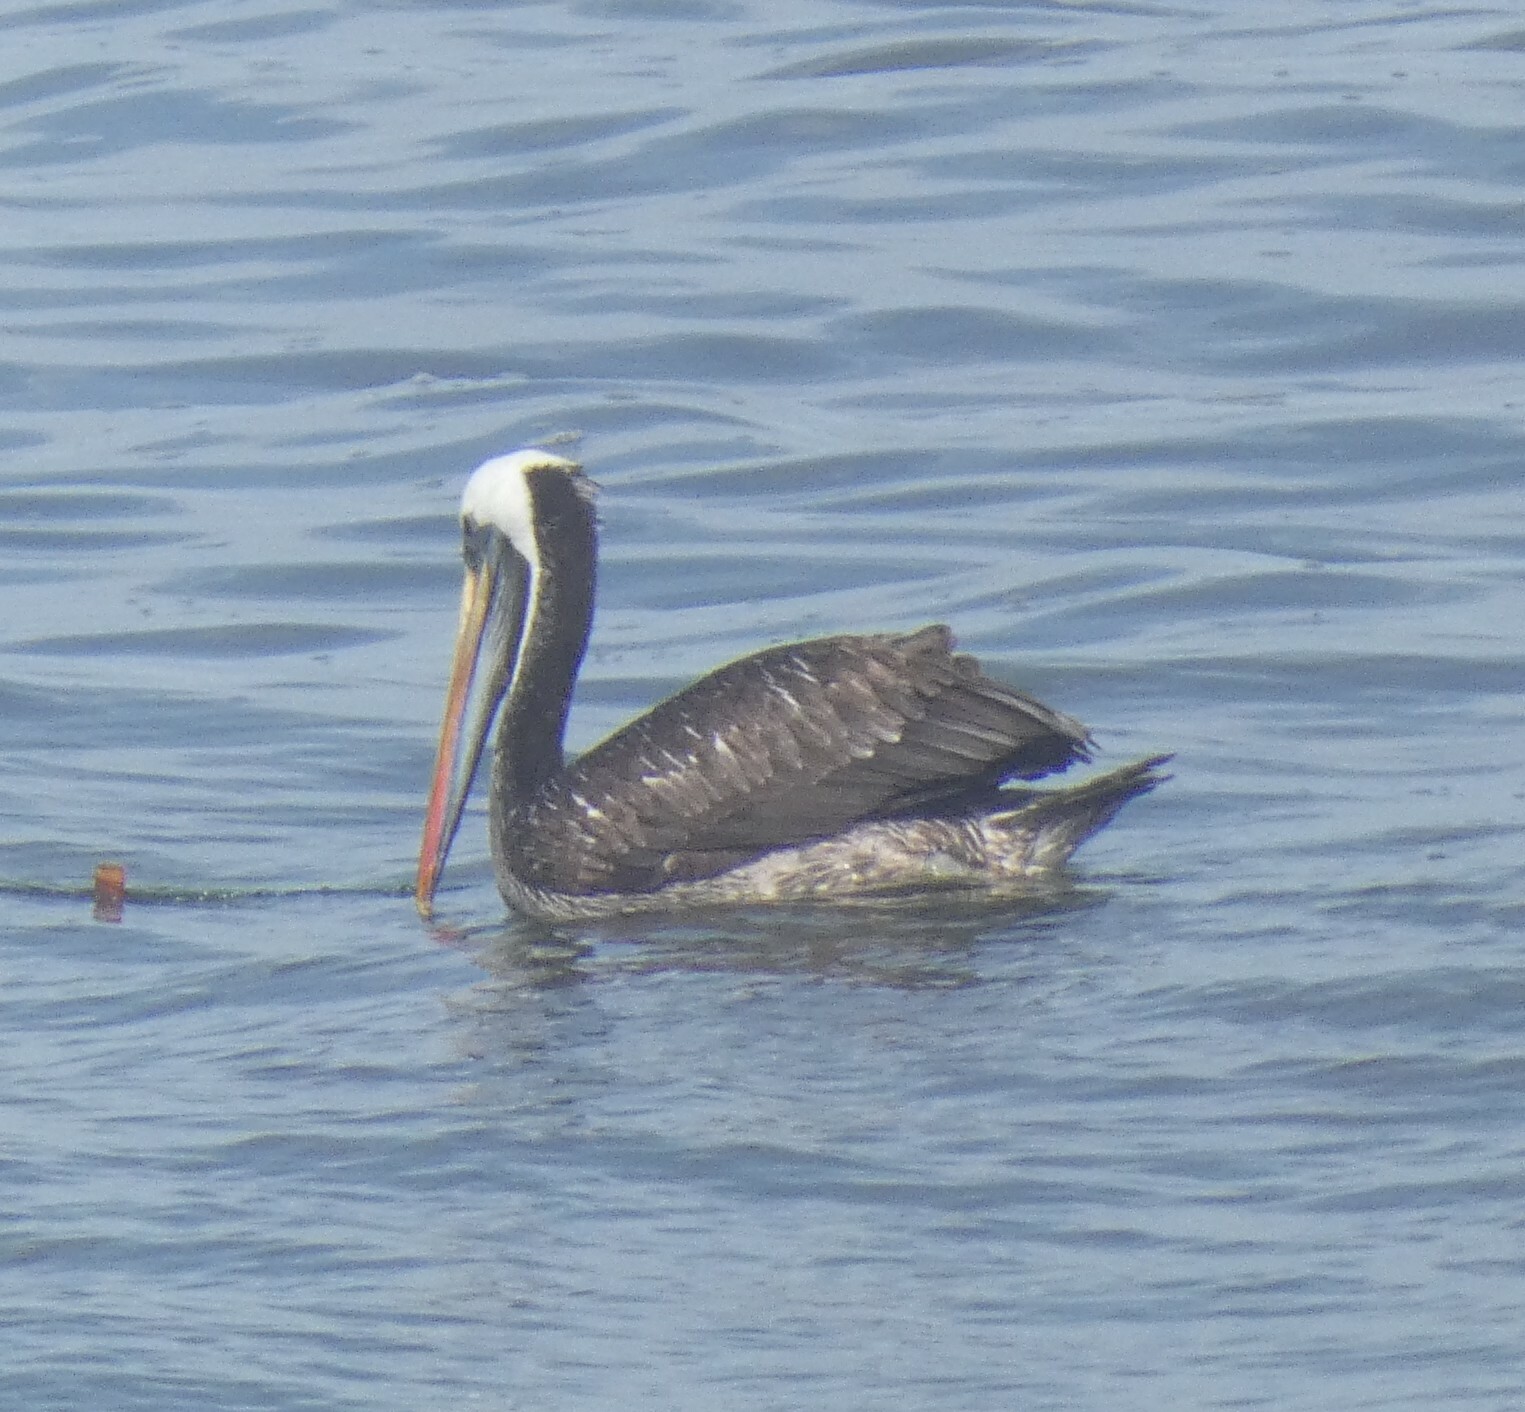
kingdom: Animalia
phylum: Chordata
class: Aves
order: Pelecaniformes
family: Pelecanidae
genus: Pelecanus
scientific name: Pelecanus thagus
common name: Peruvian pelican
